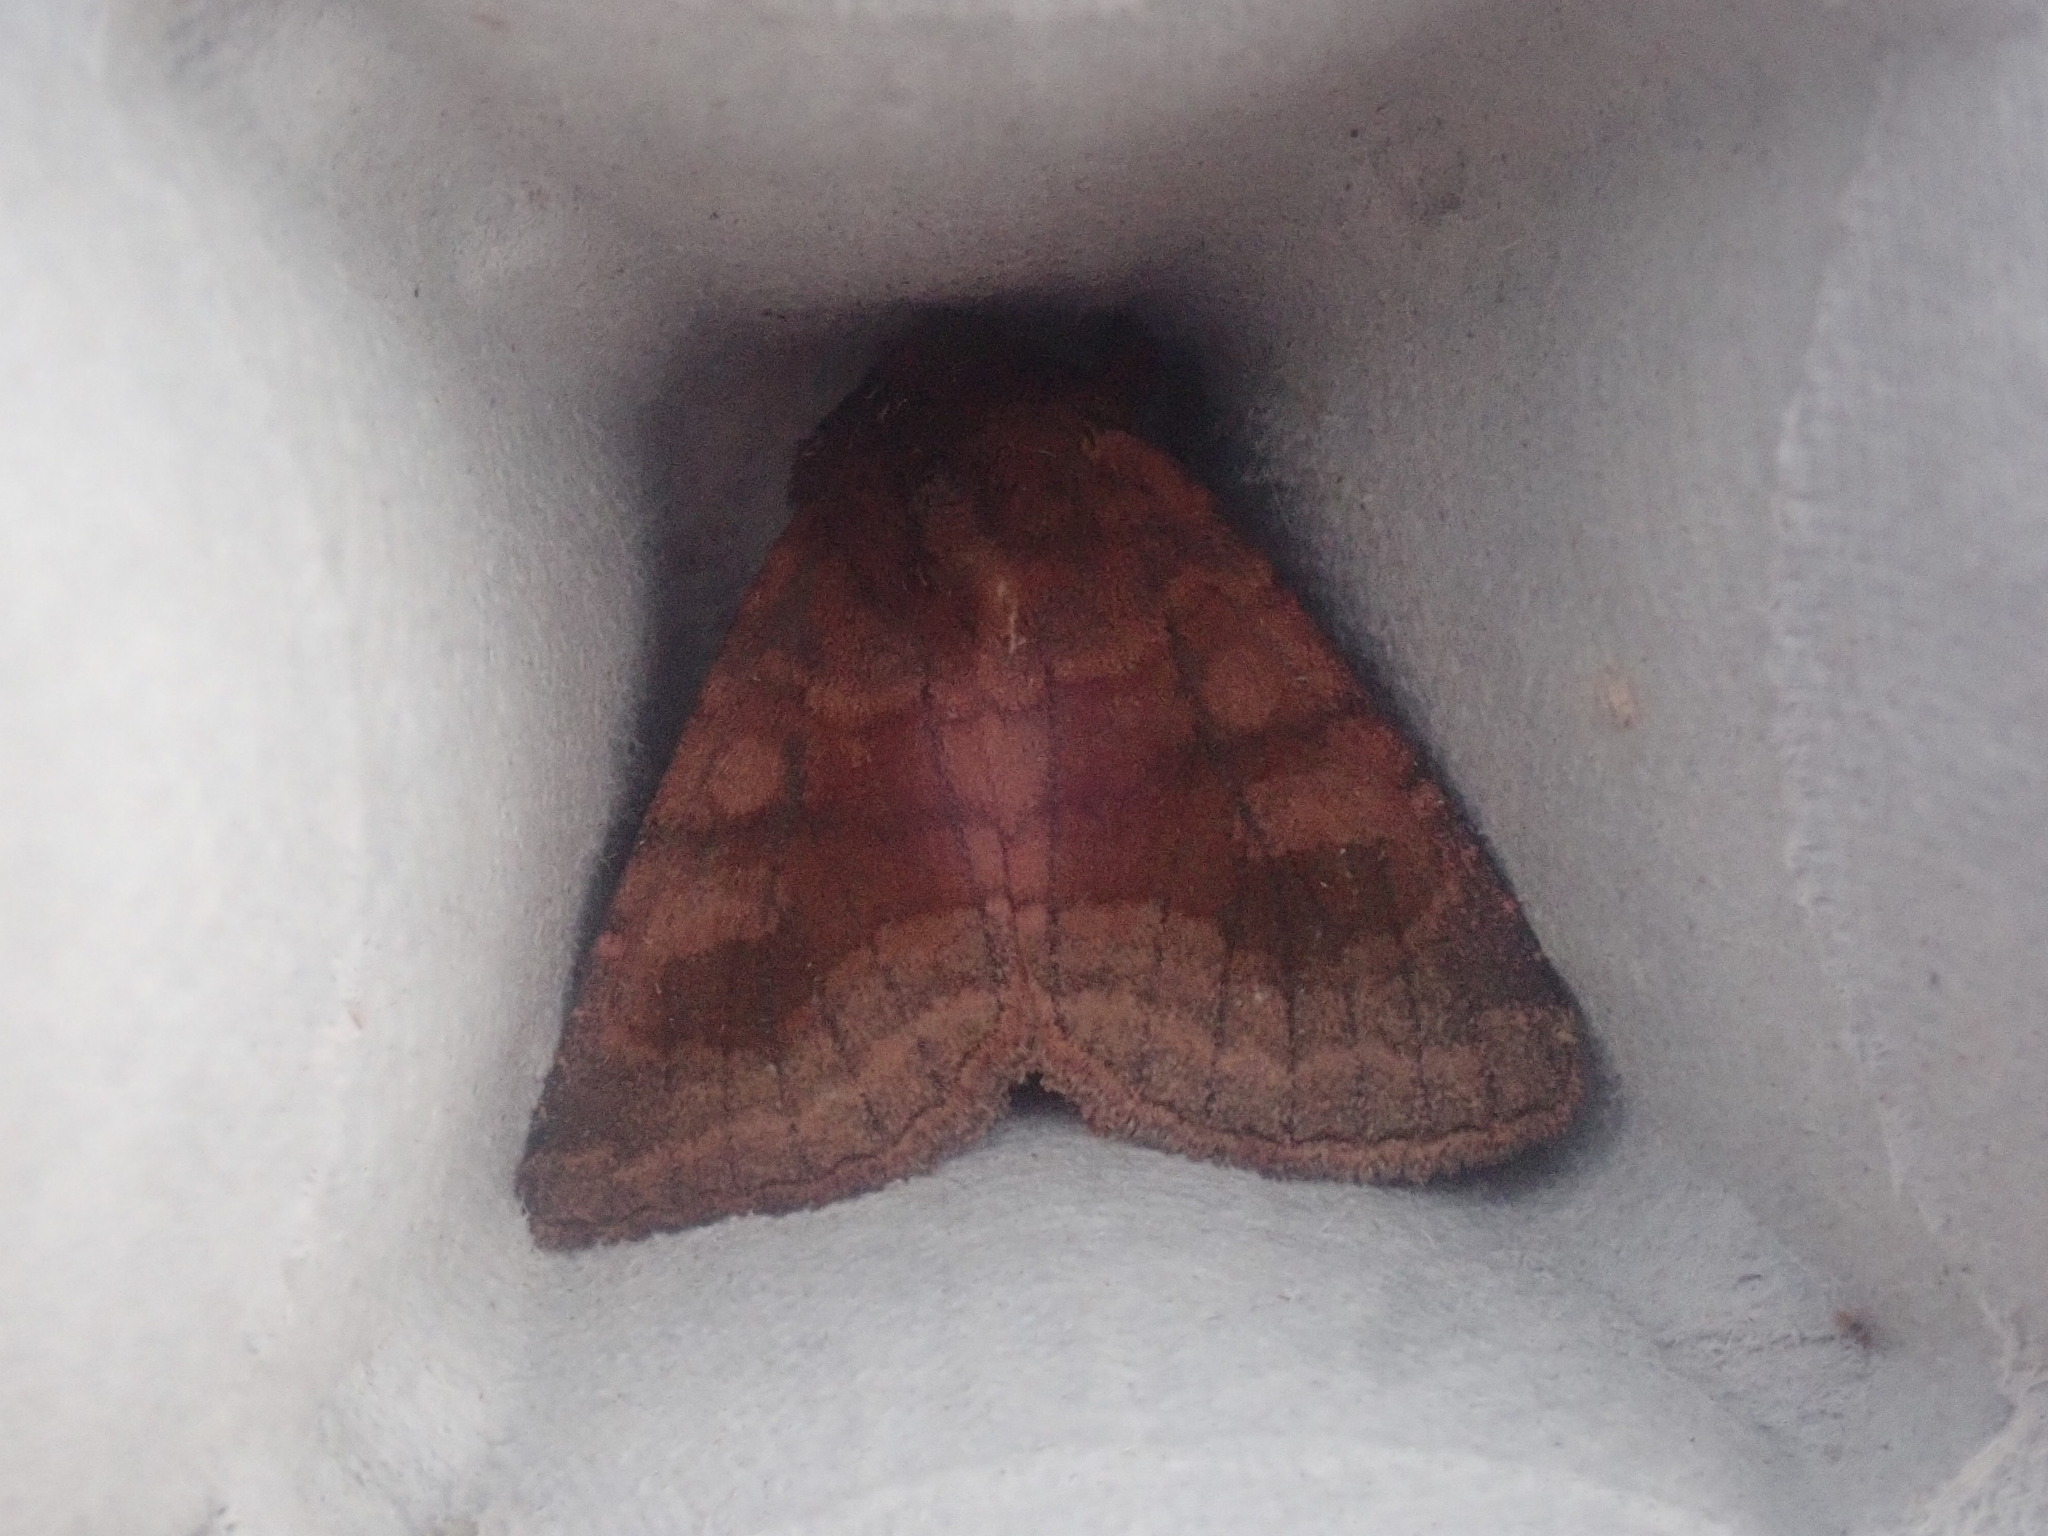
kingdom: Animalia
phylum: Arthropoda
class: Insecta
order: Lepidoptera
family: Noctuidae
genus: Nephelodes
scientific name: Nephelodes minians
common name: Bronzed cutworm
